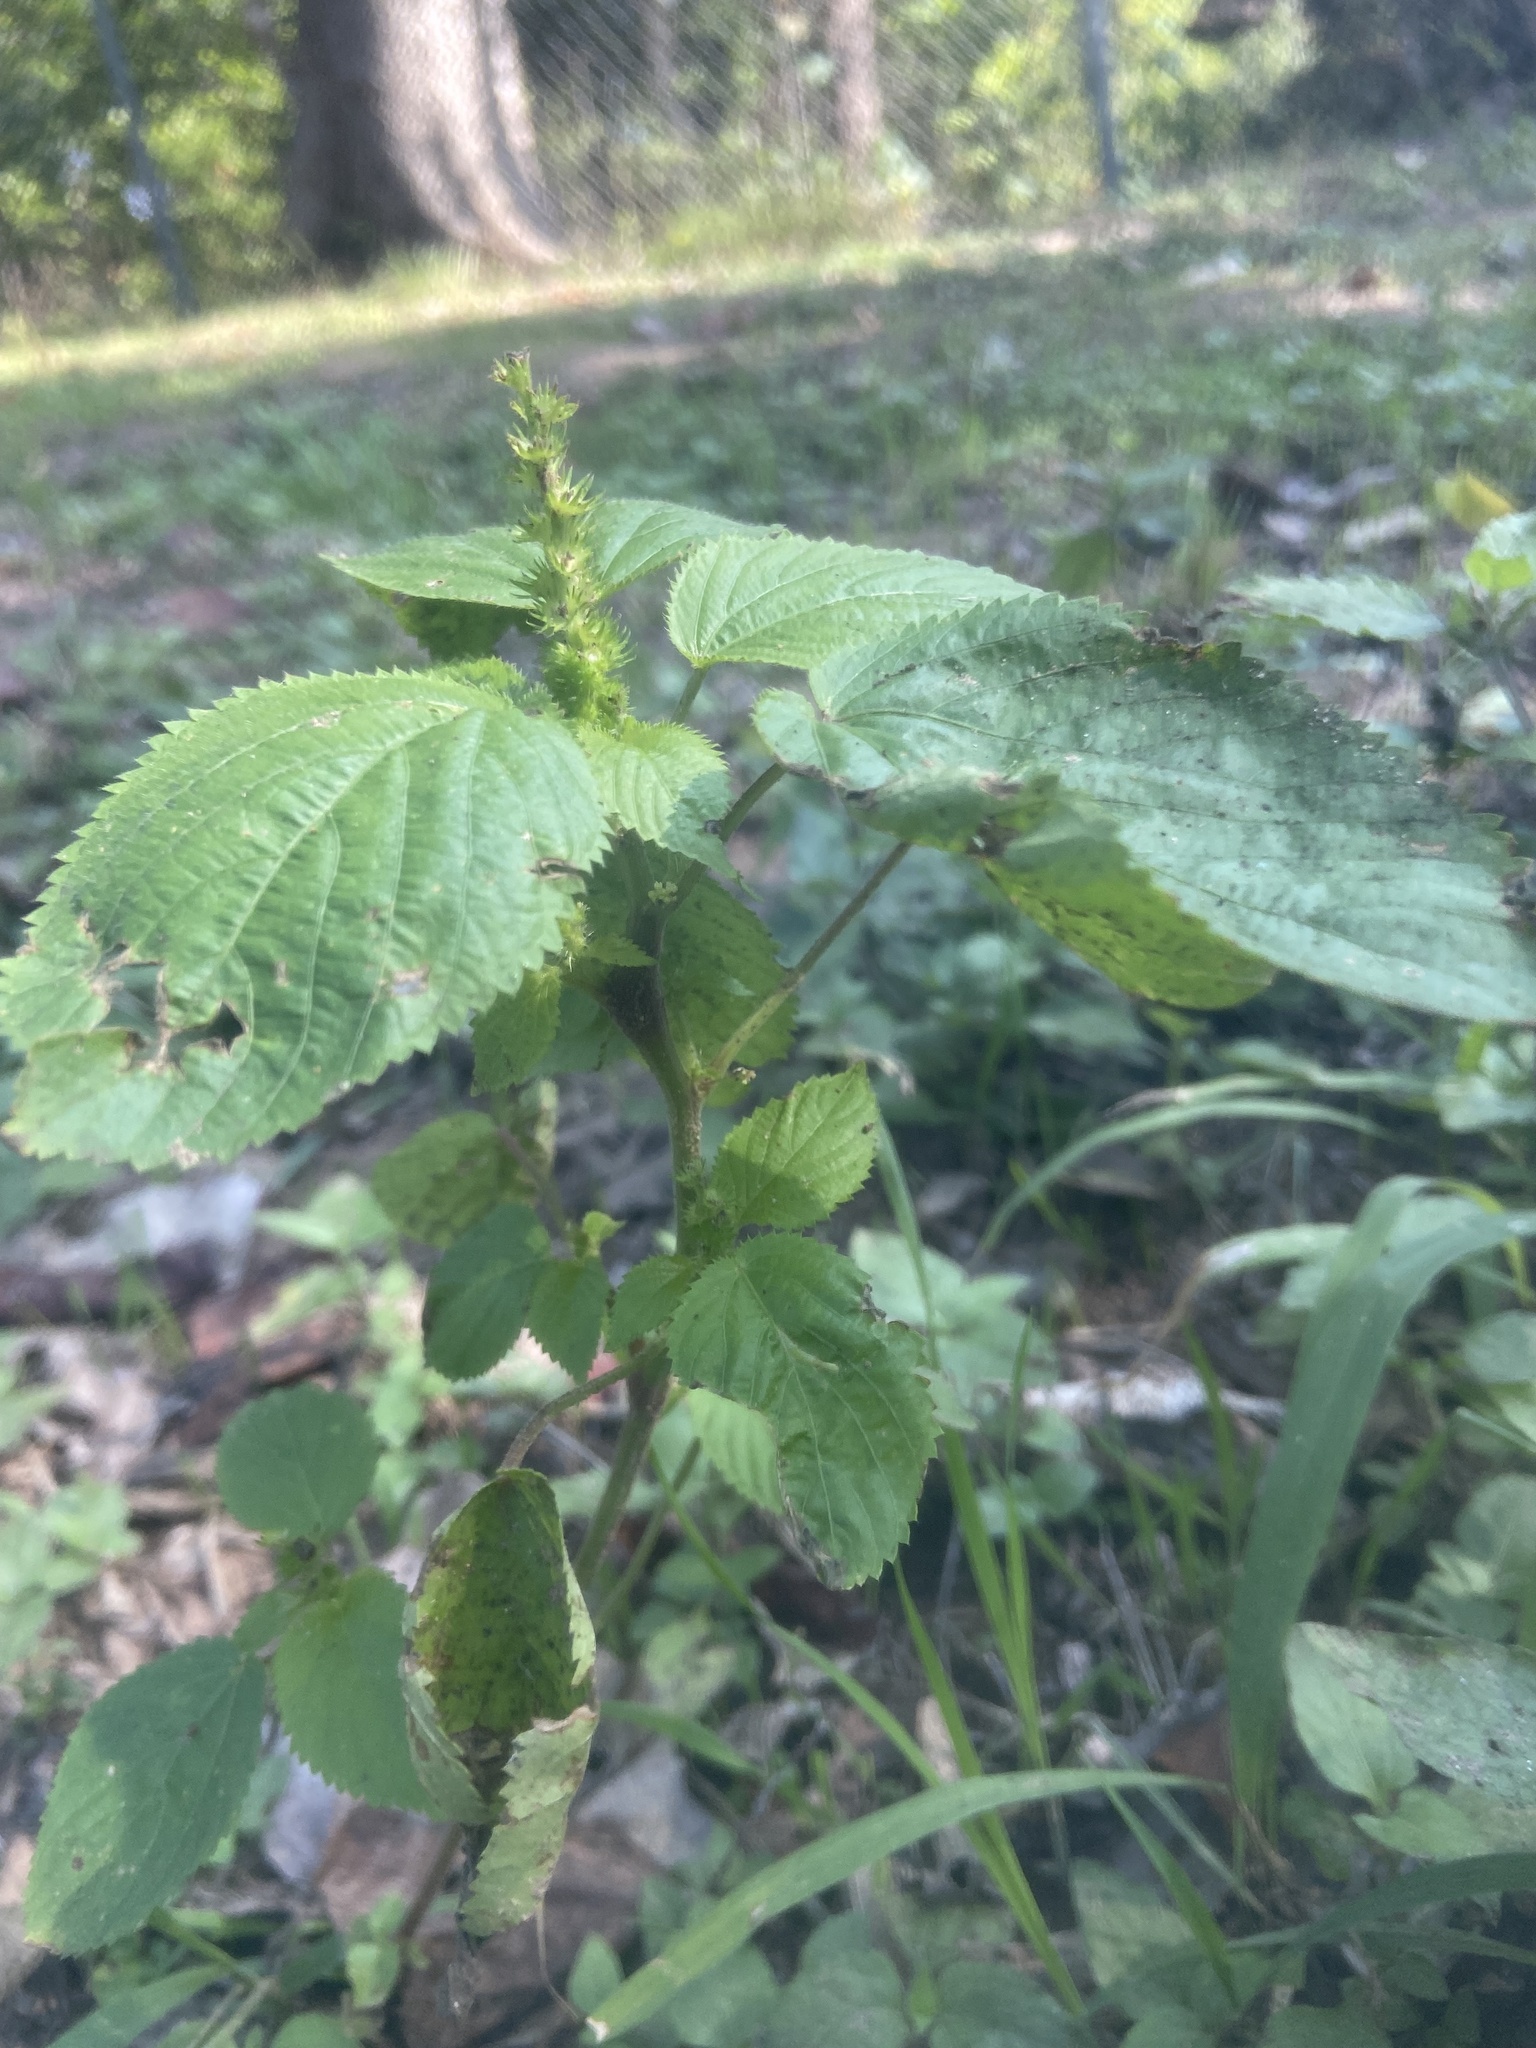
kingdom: Plantae
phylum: Tracheophyta
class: Magnoliopsida
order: Malpighiales
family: Euphorbiaceae
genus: Acalypha
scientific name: Acalypha ostryifolia
